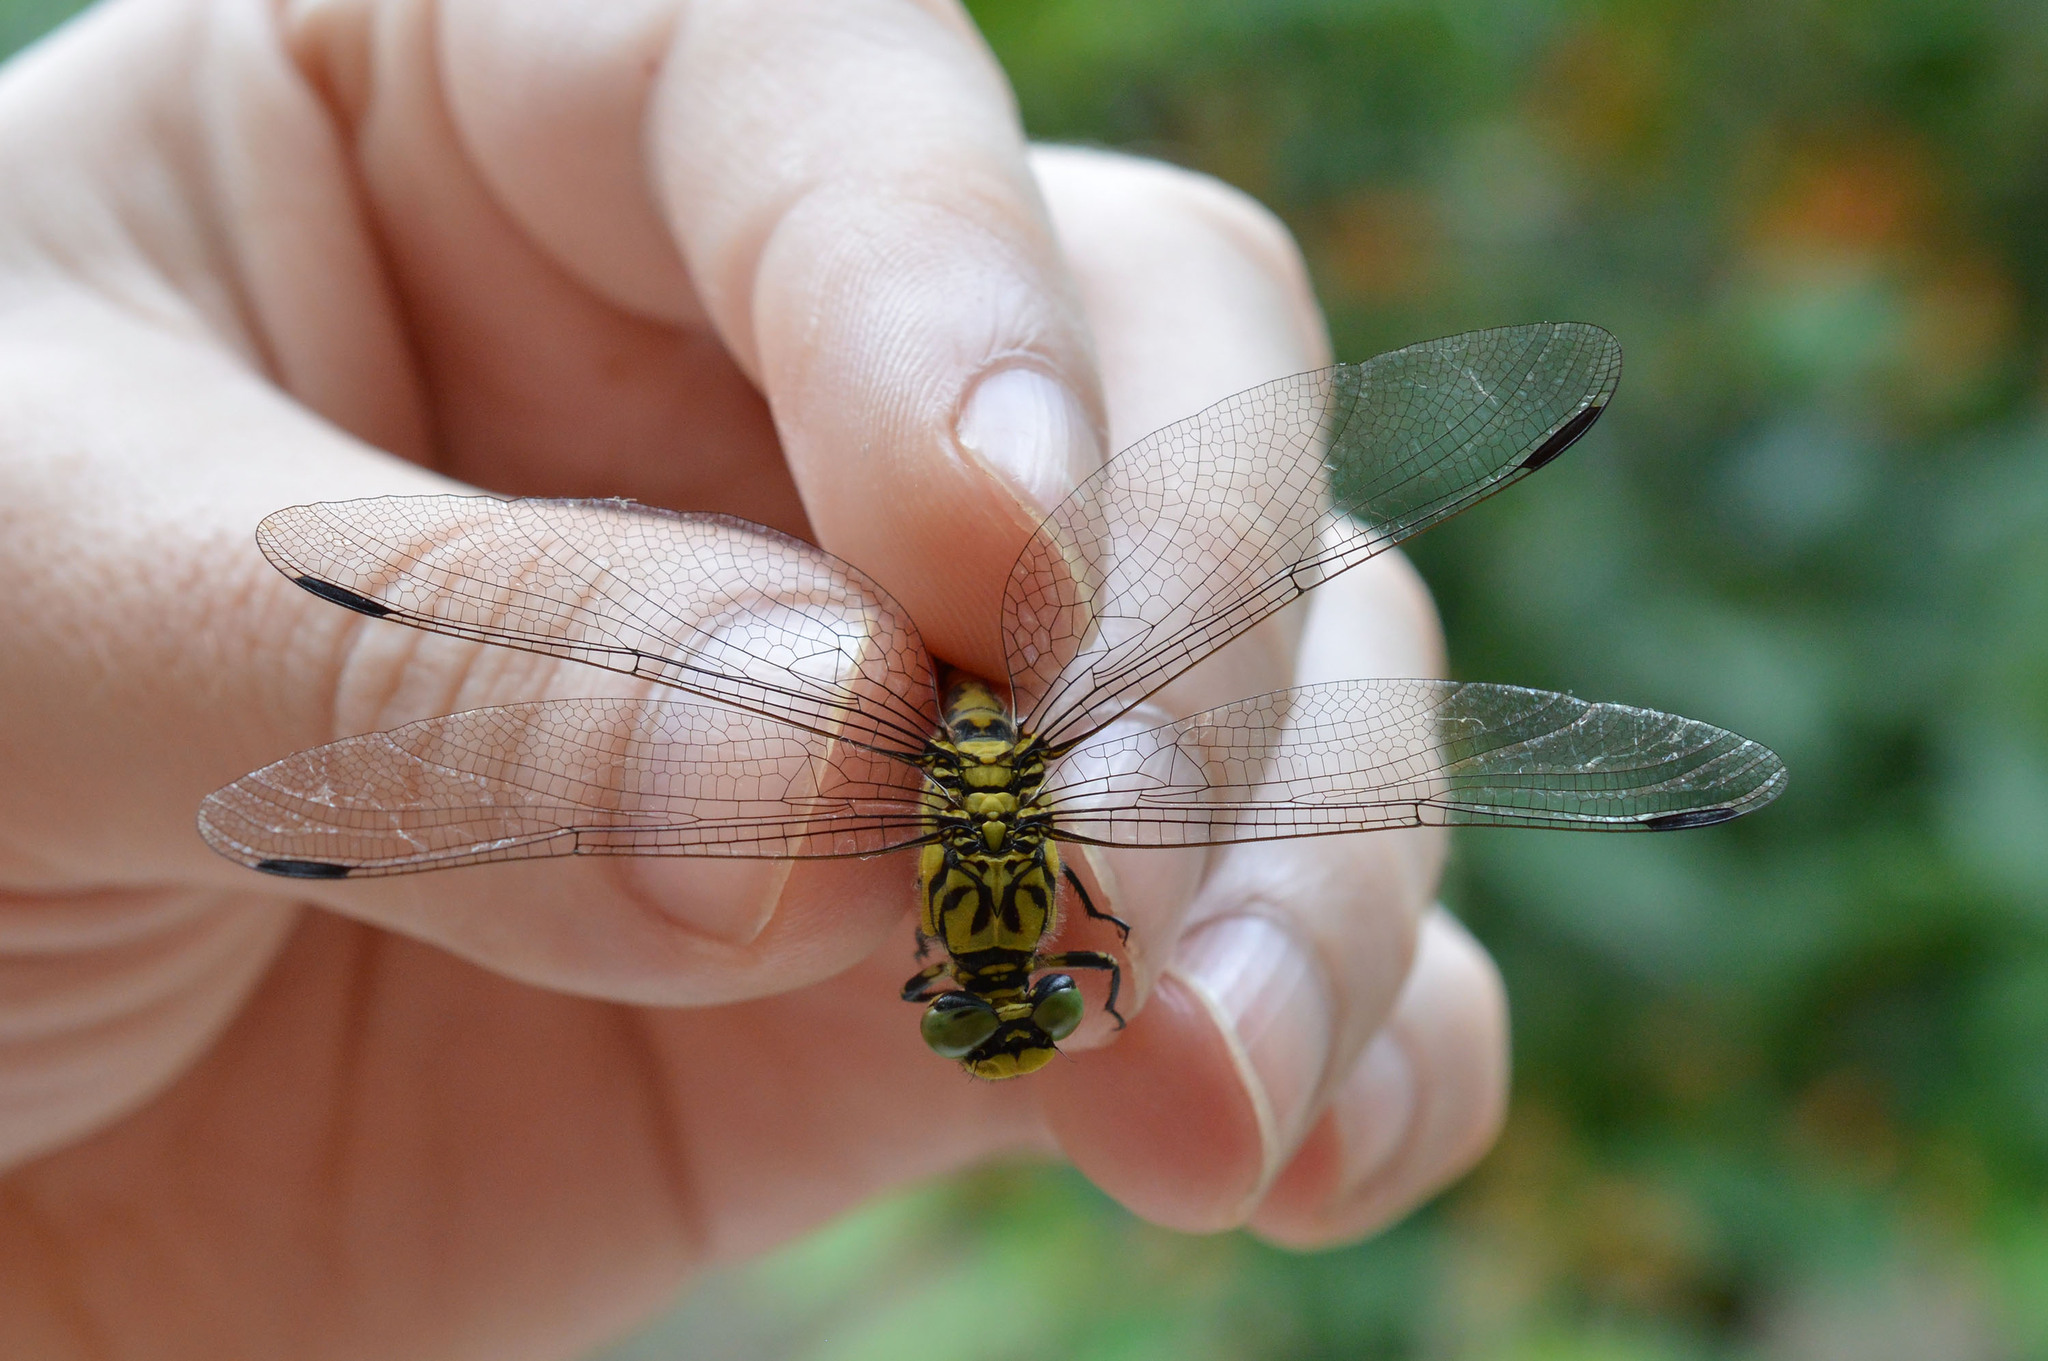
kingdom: Animalia
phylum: Arthropoda
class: Insecta
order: Odonata
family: Gomphidae
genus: Onychogomphus
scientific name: Onychogomphus forcipatus
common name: Small pincertail
